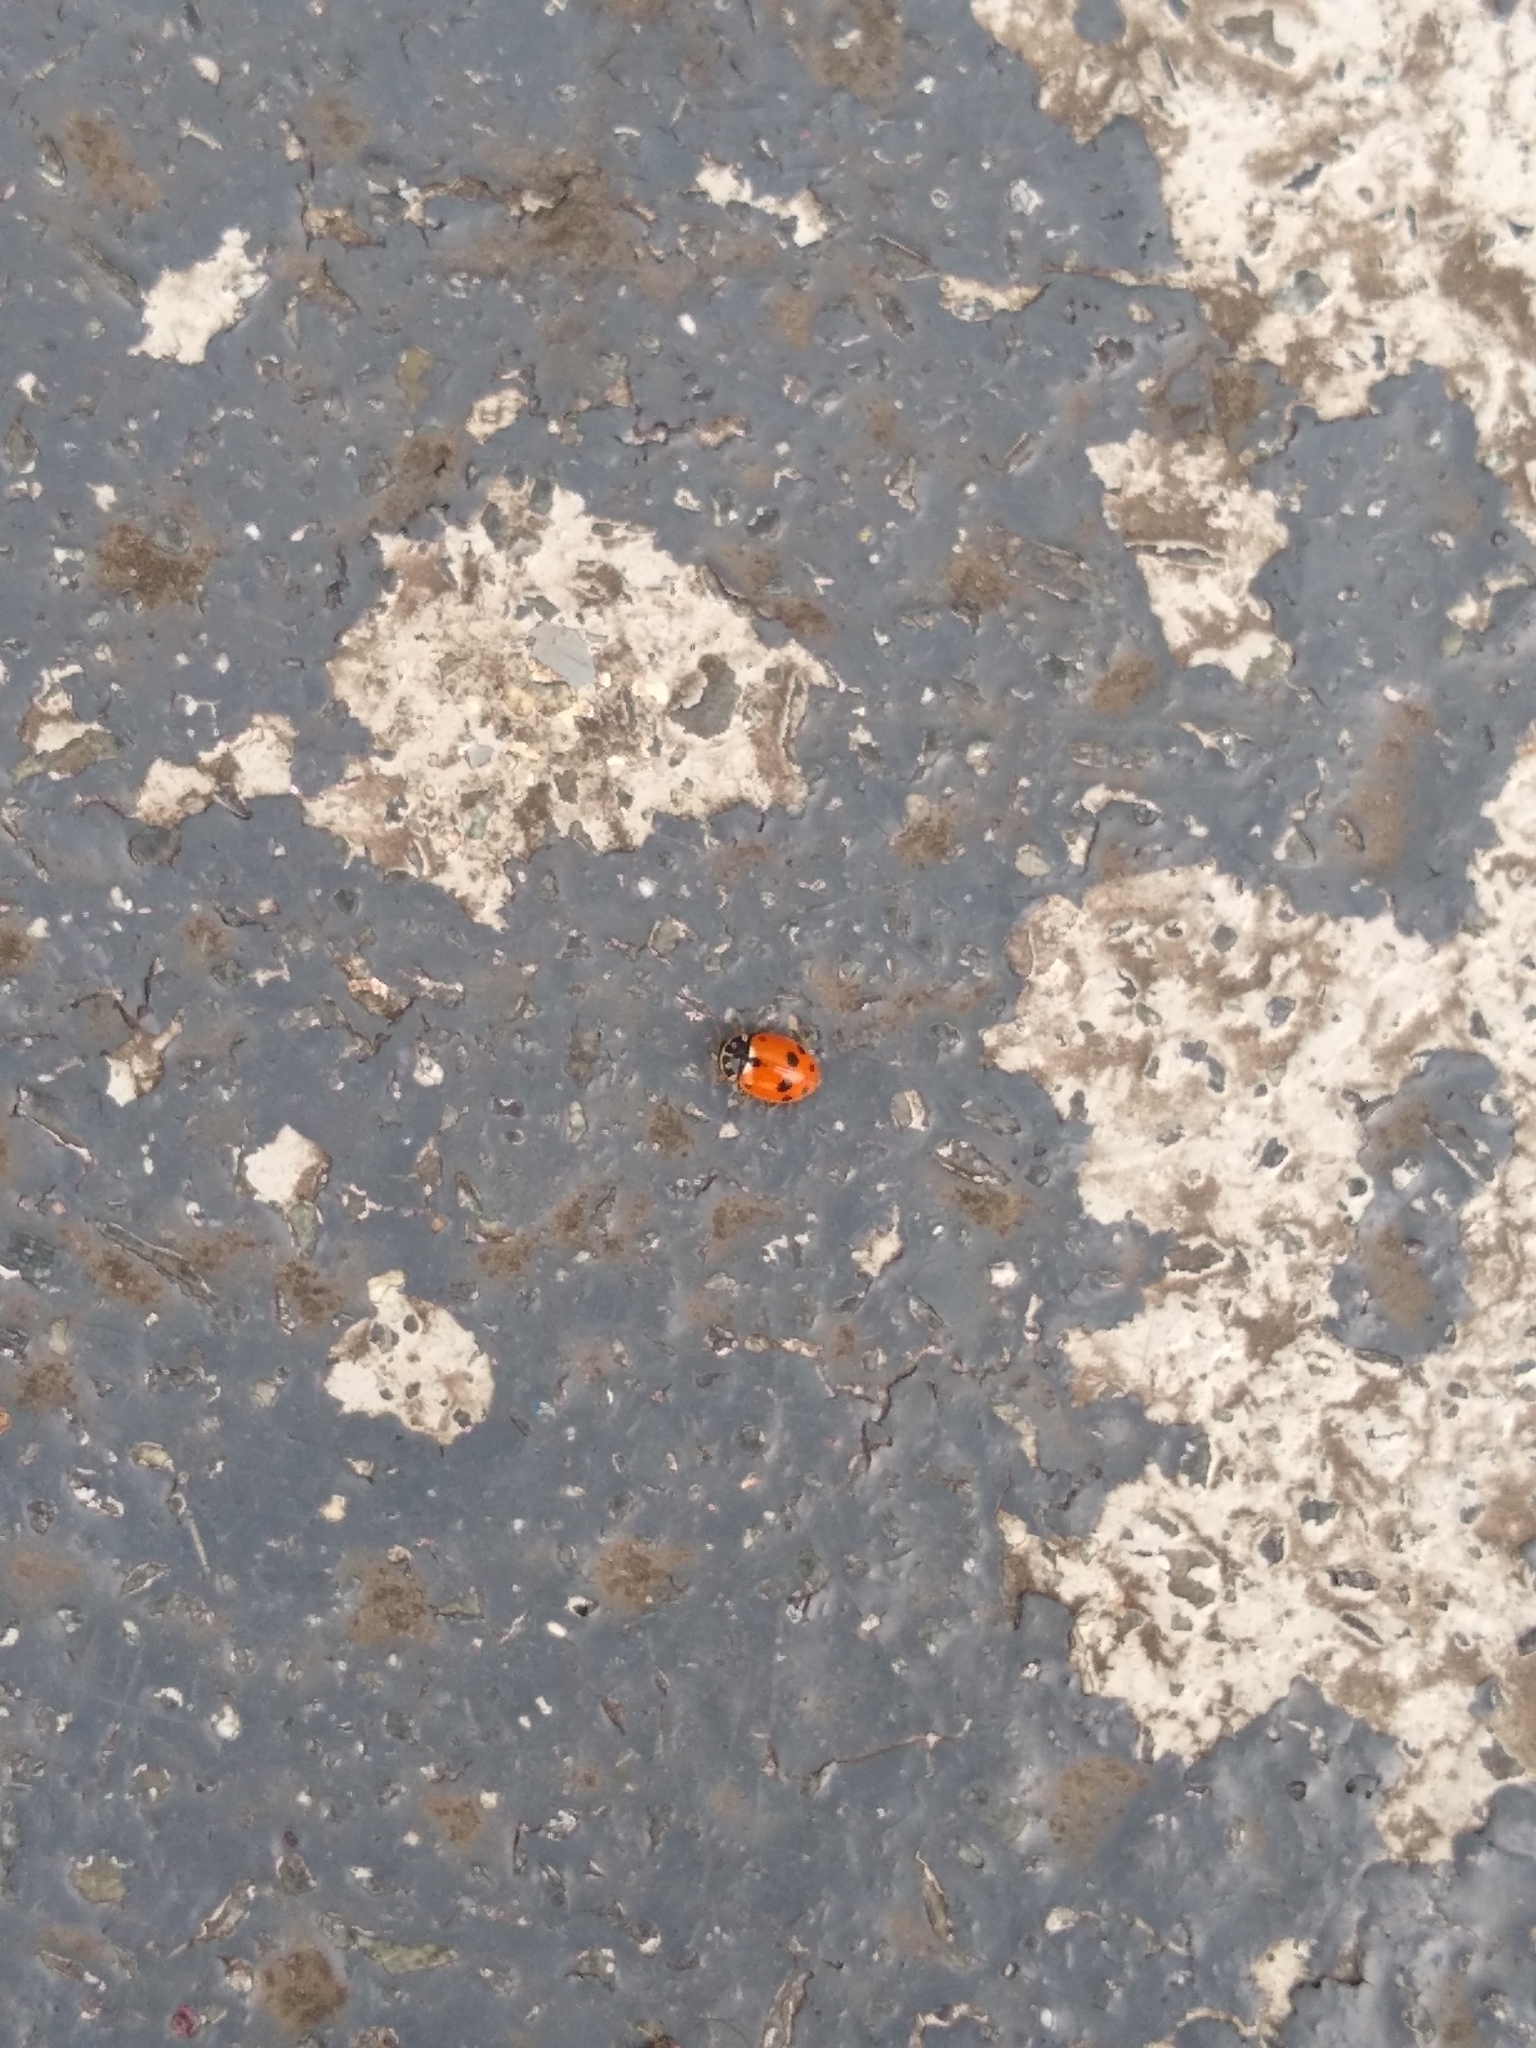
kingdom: Animalia
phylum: Arthropoda
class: Insecta
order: Coleoptera
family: Coccinellidae
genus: Hippodamia
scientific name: Hippodamia variegata
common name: Ladybird beetle
